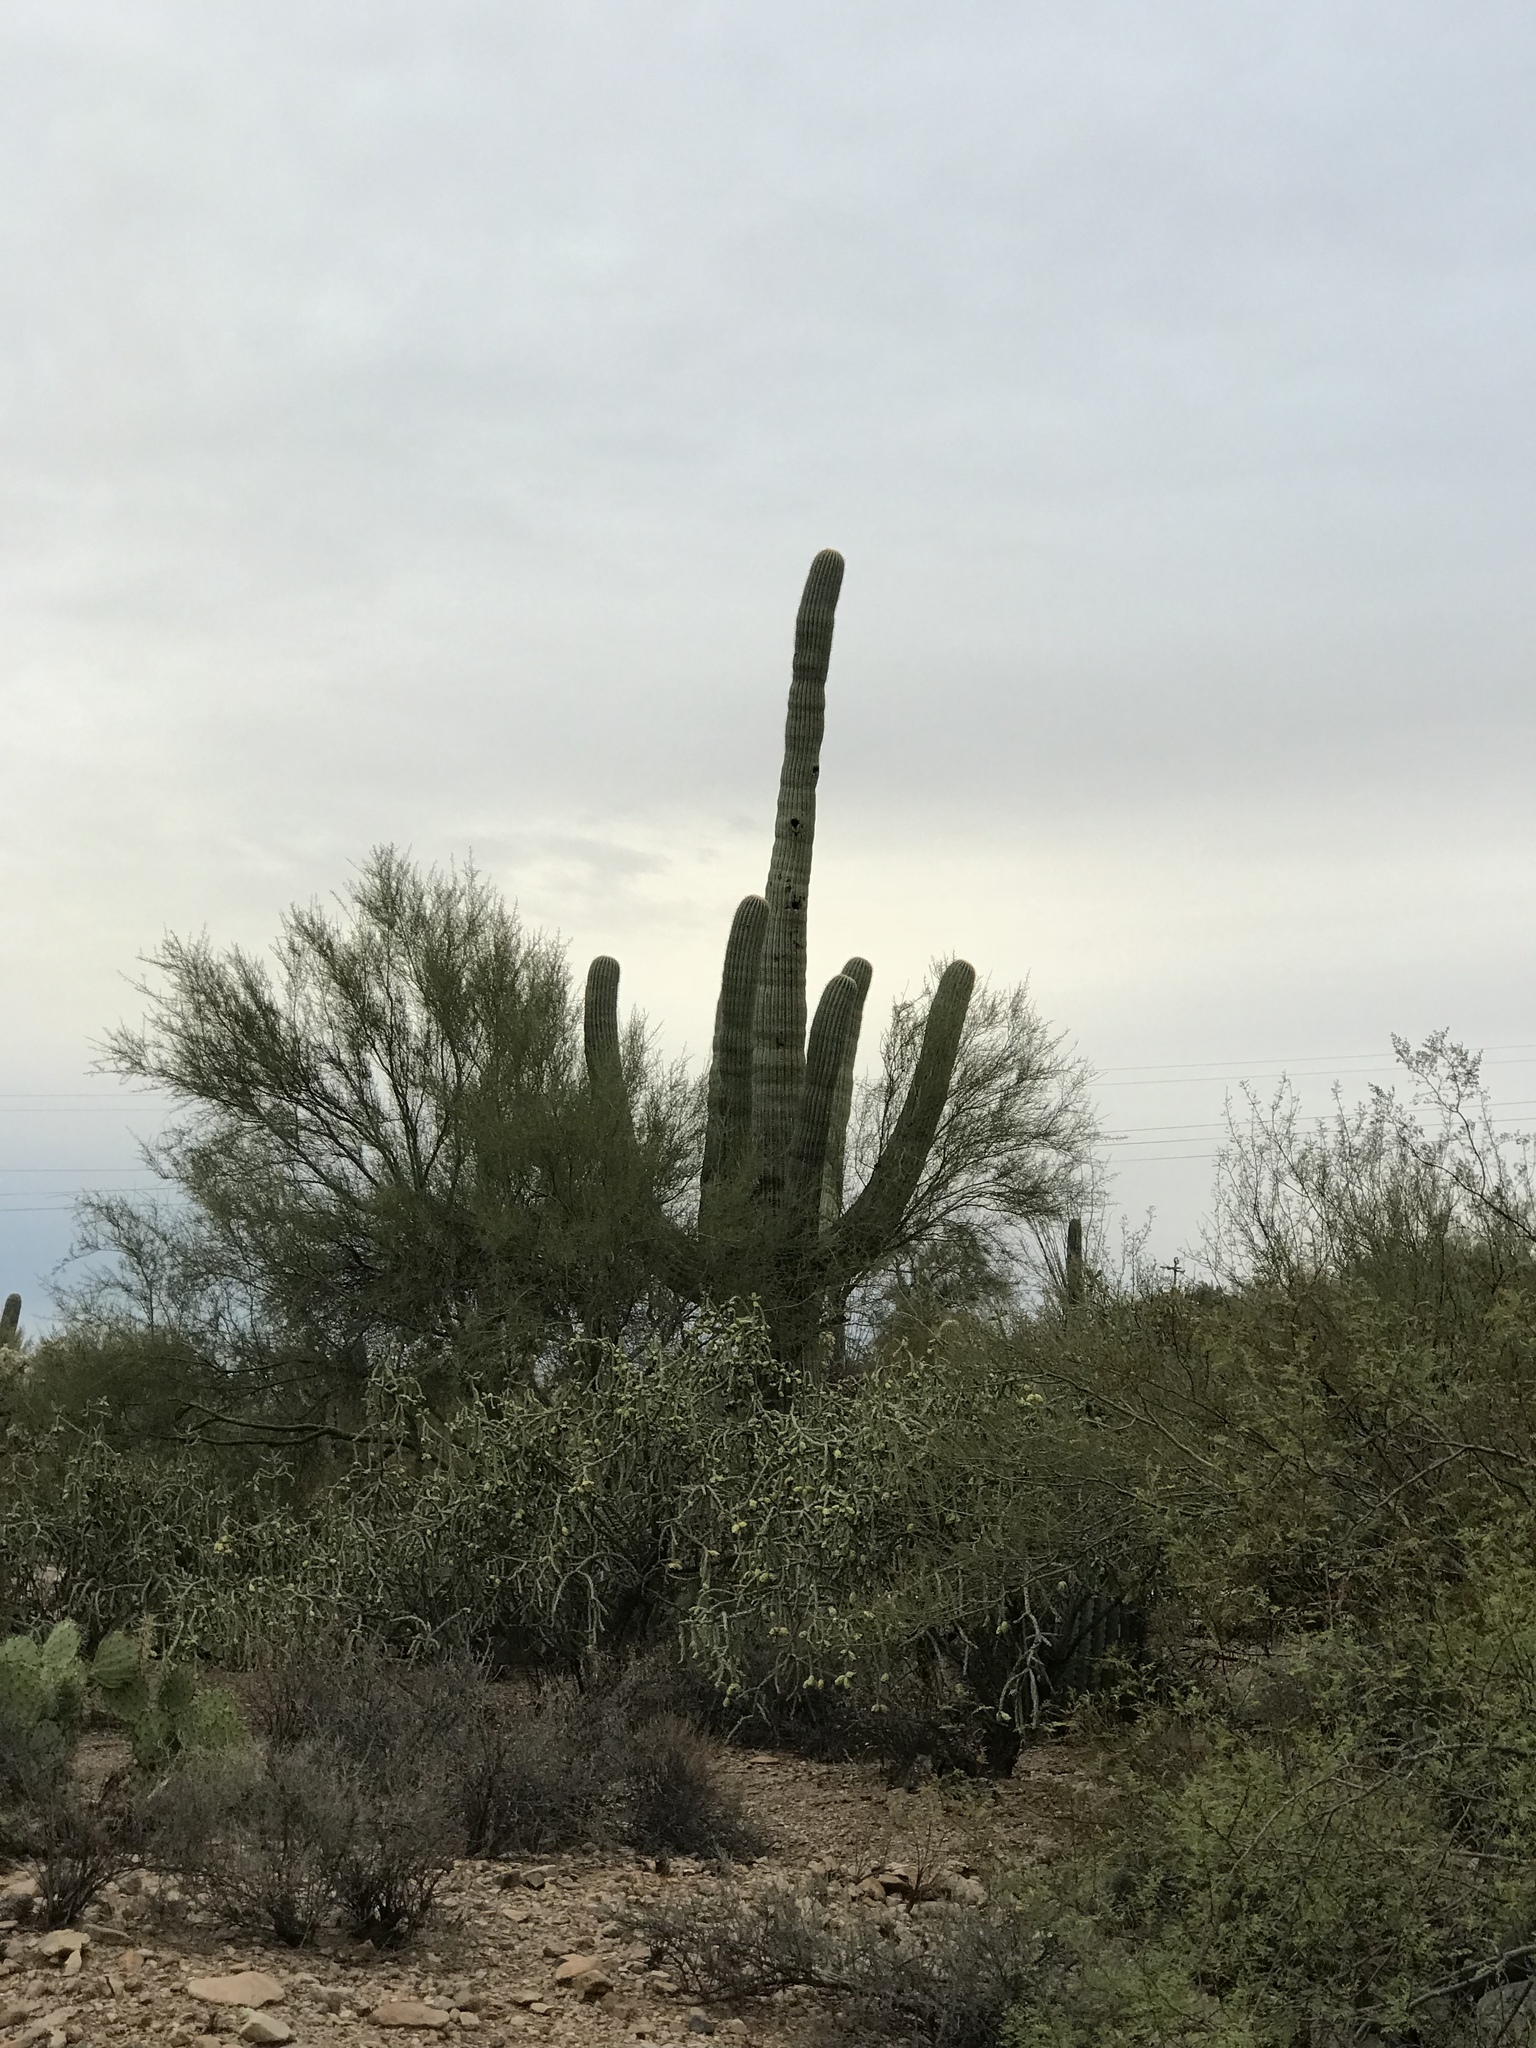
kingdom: Plantae
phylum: Tracheophyta
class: Magnoliopsida
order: Caryophyllales
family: Cactaceae
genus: Carnegiea
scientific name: Carnegiea gigantea
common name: Saguaro
